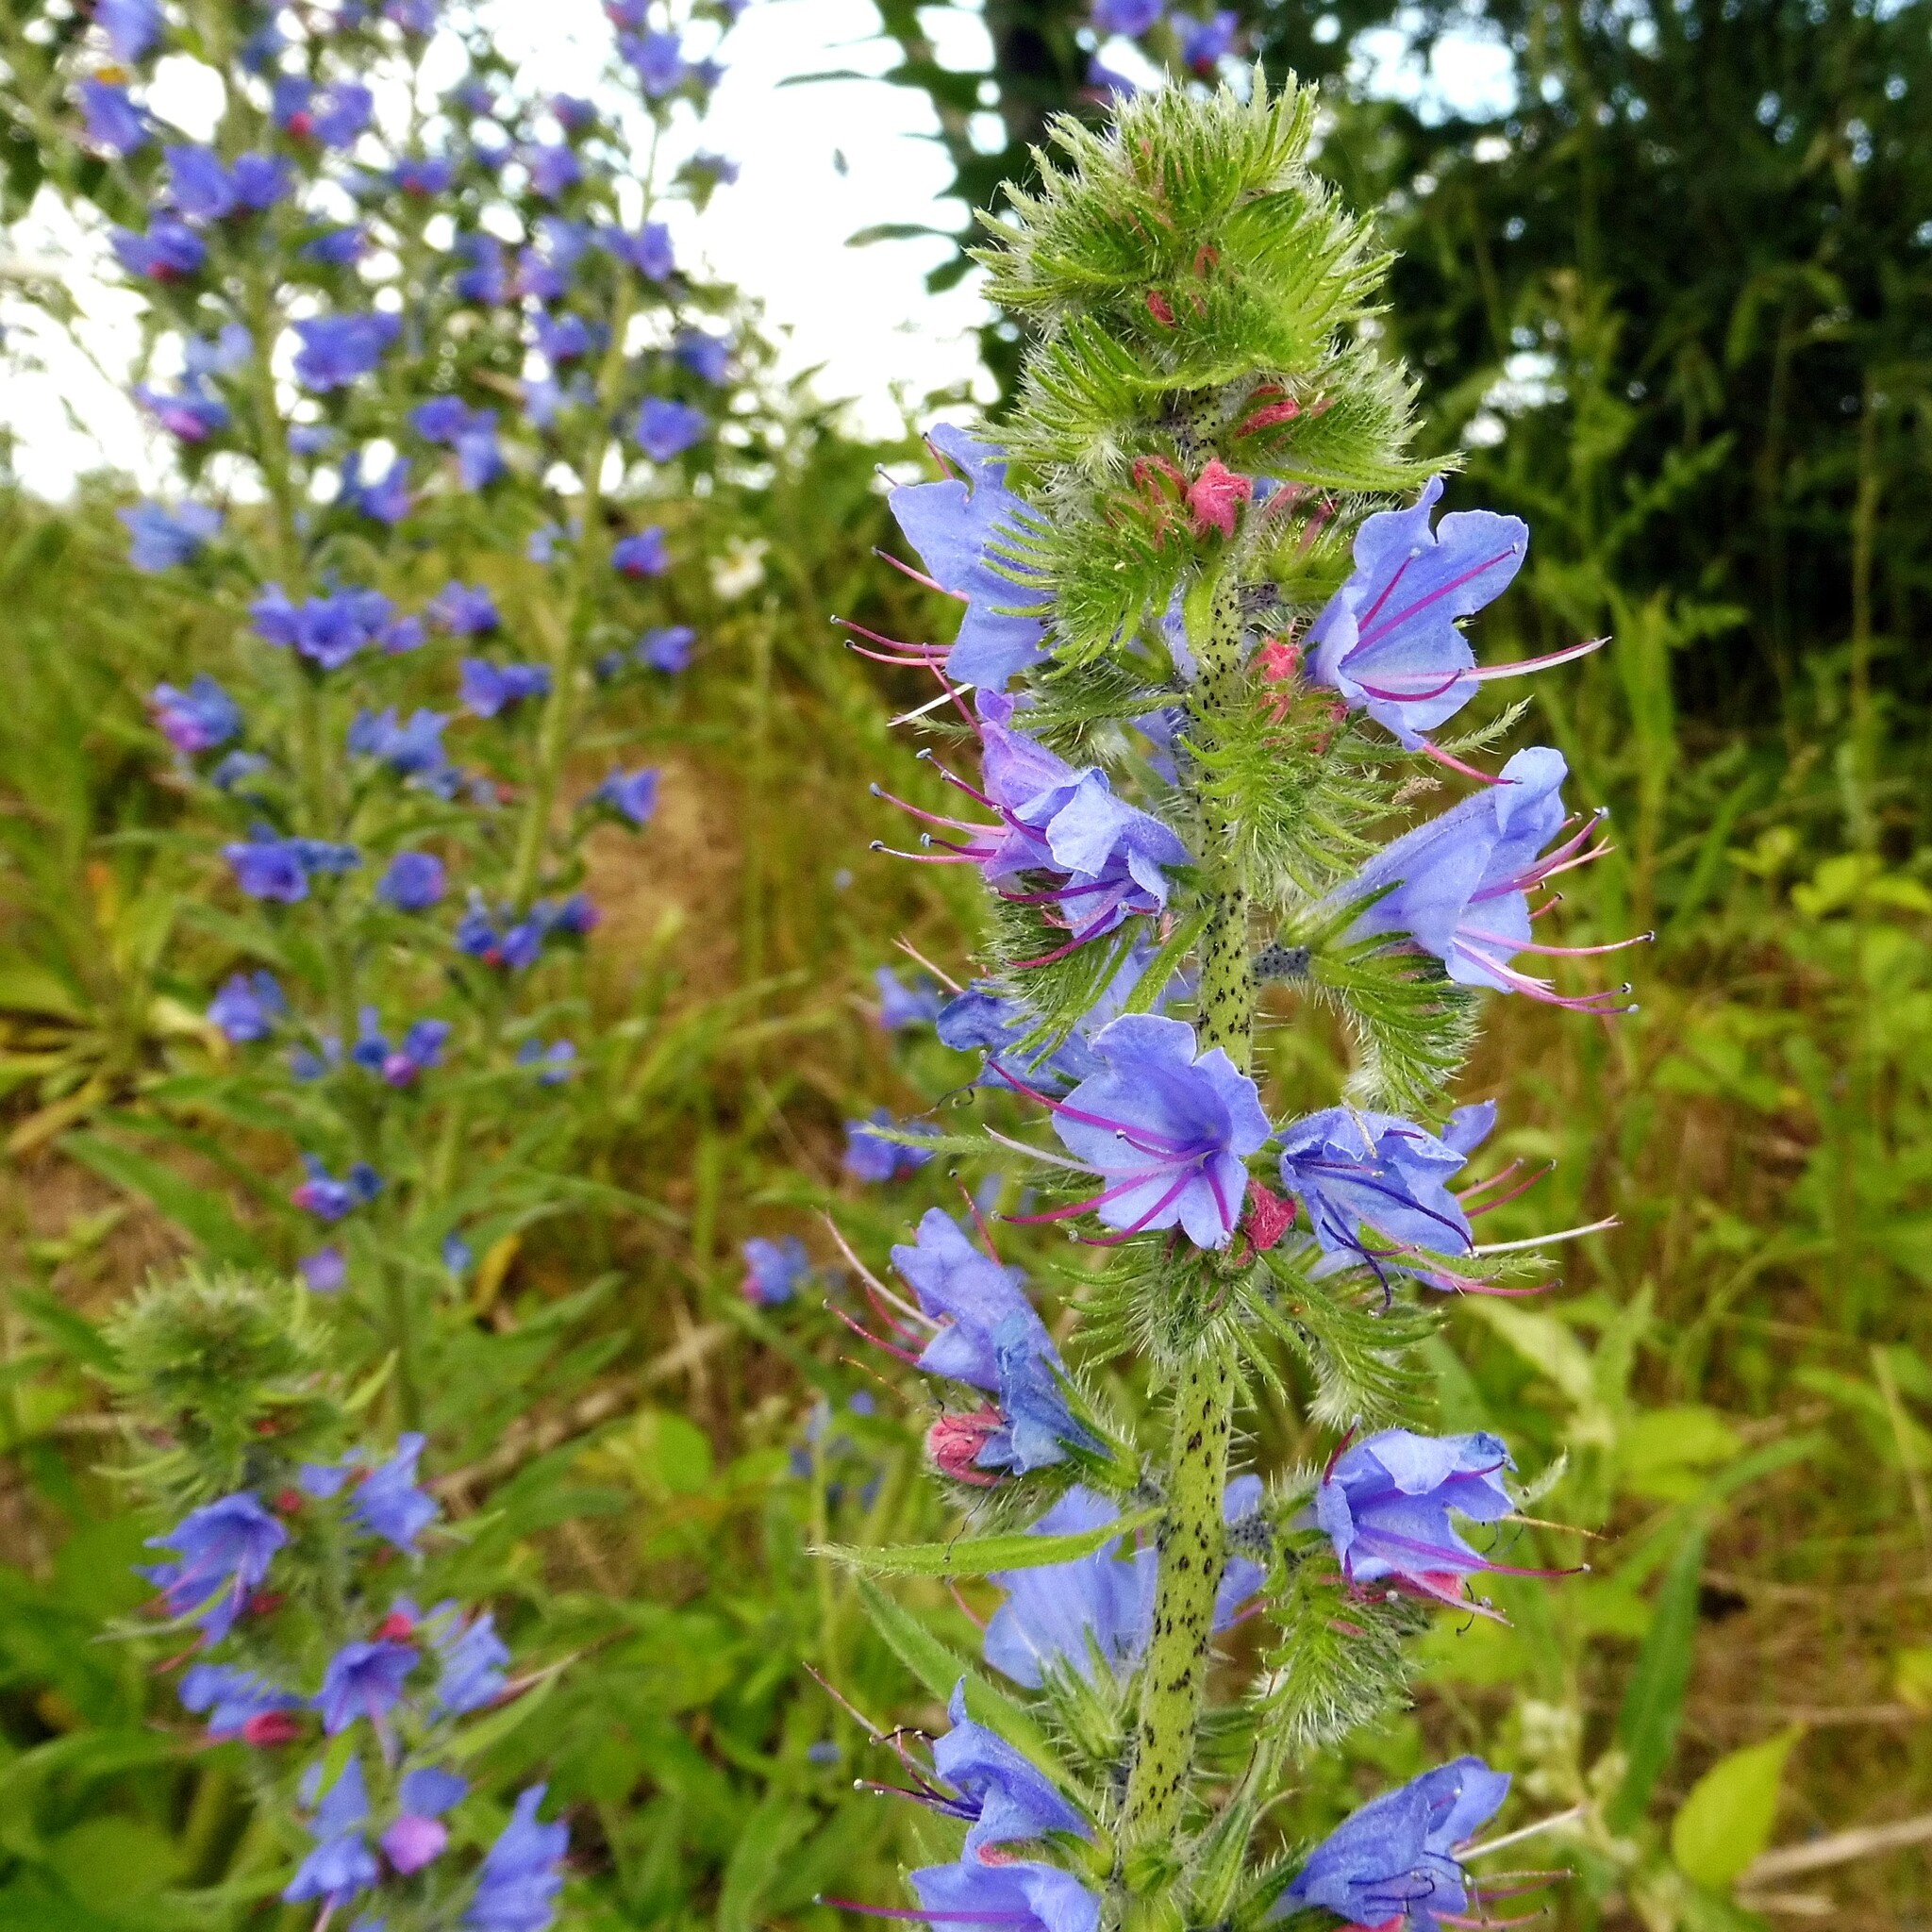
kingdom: Plantae
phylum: Tracheophyta
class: Magnoliopsida
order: Boraginales
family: Boraginaceae
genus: Echium
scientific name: Echium vulgare
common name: Common viper's bugloss
